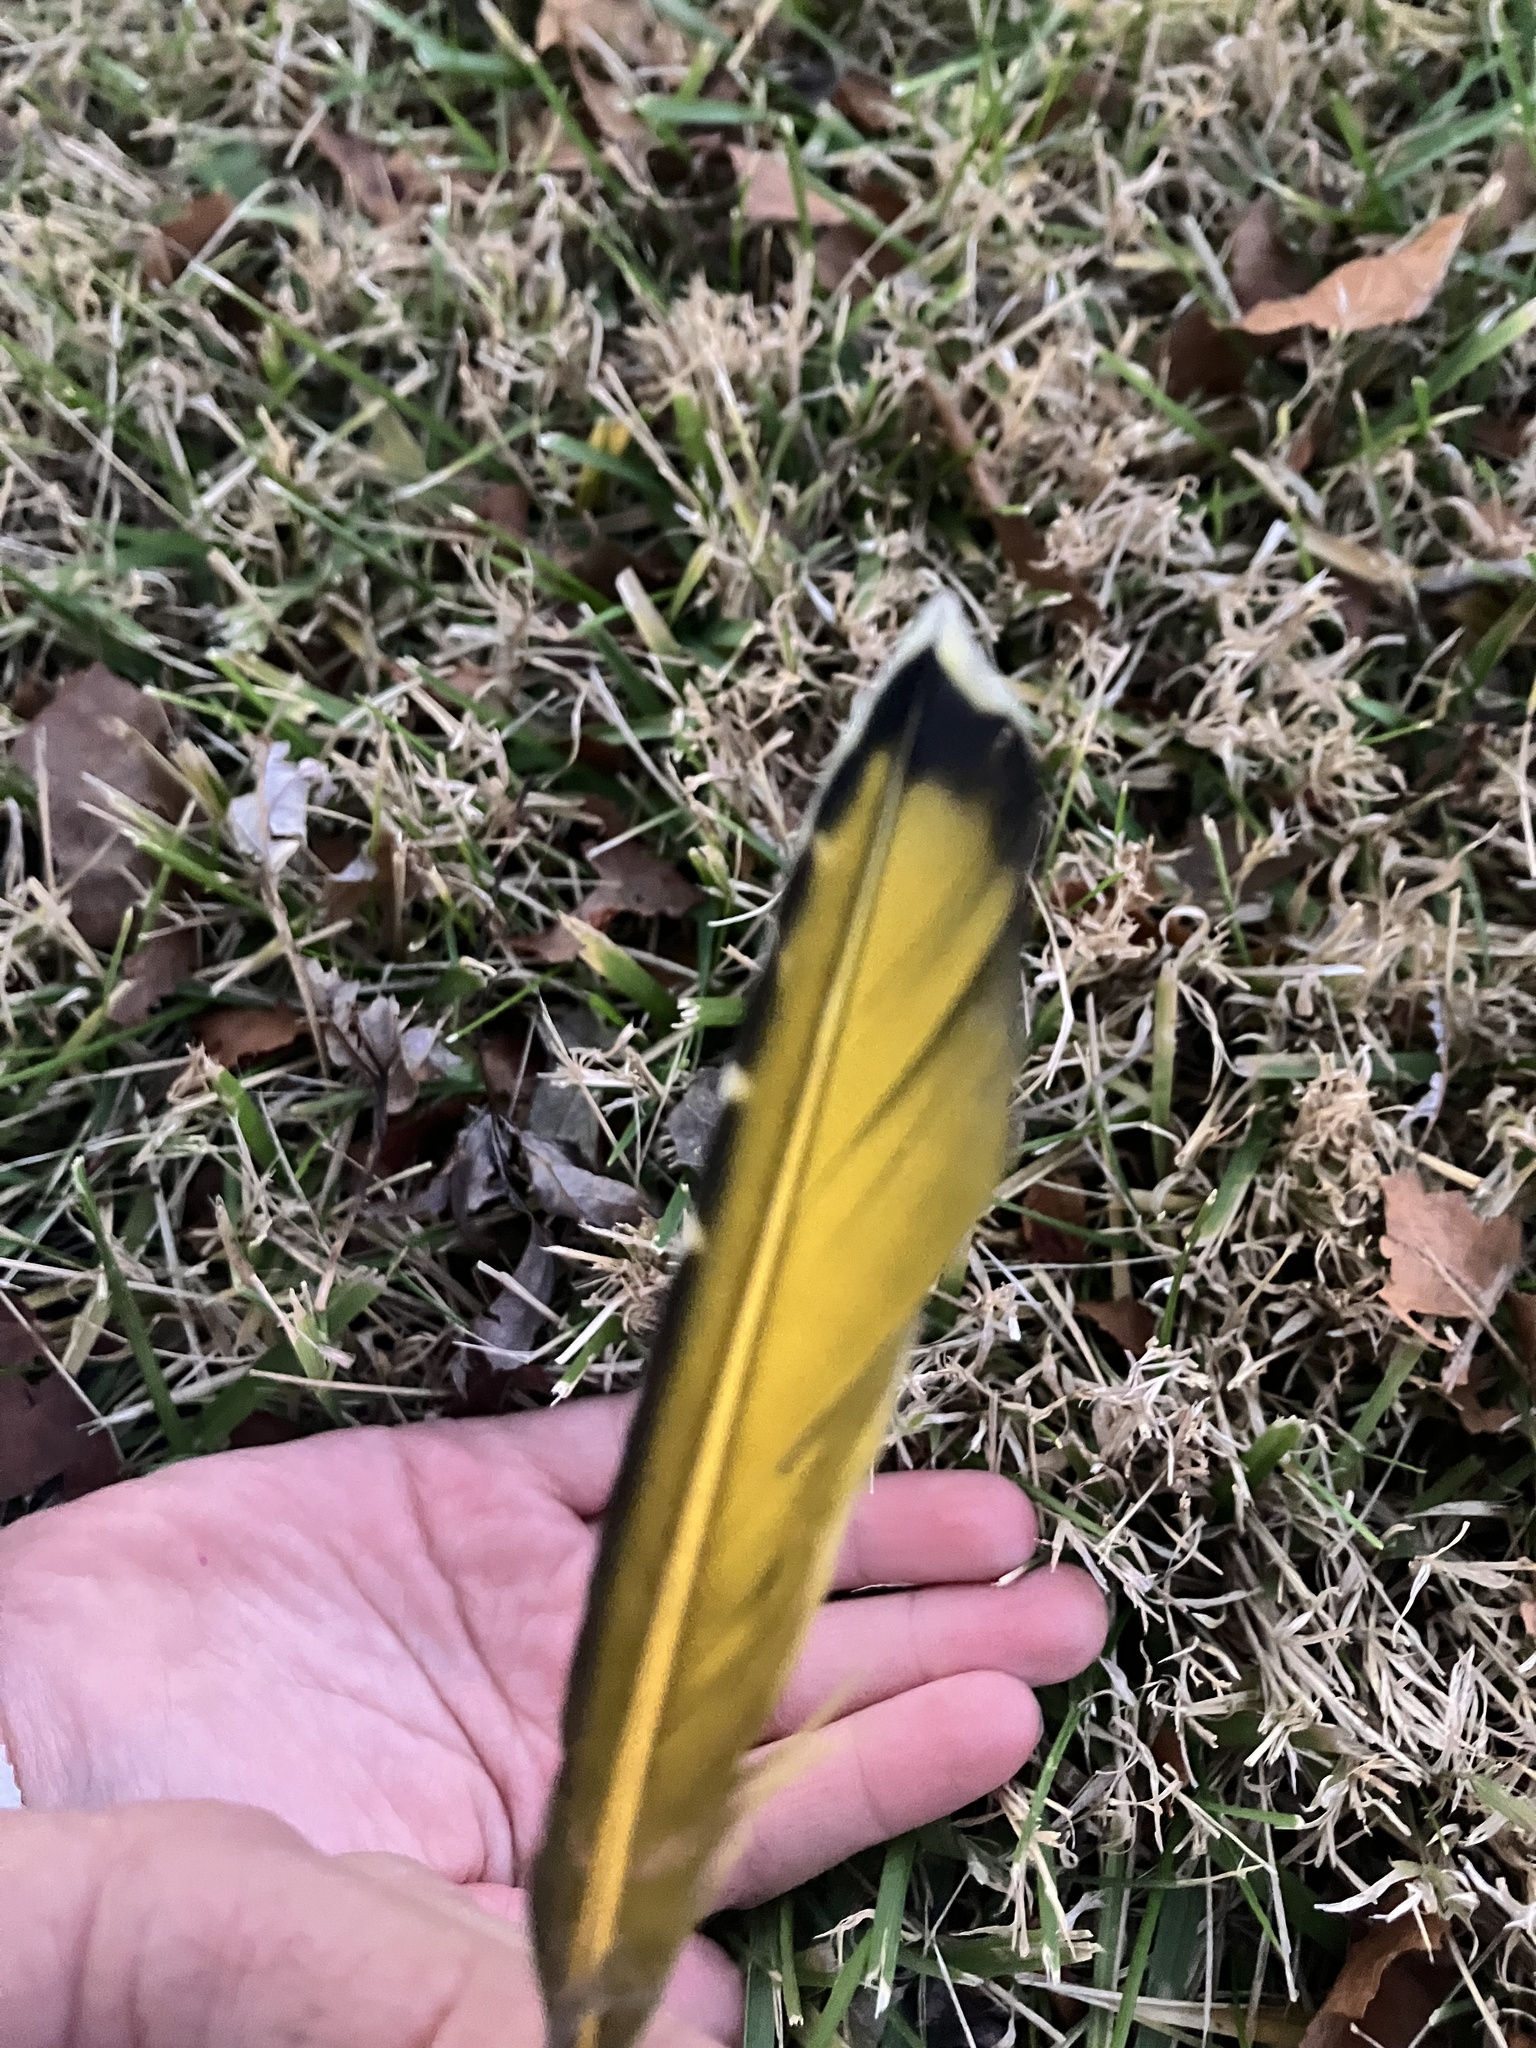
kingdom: Animalia
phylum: Chordata
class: Aves
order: Piciformes
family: Picidae
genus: Colaptes
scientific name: Colaptes auratus
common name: Northern flicker
